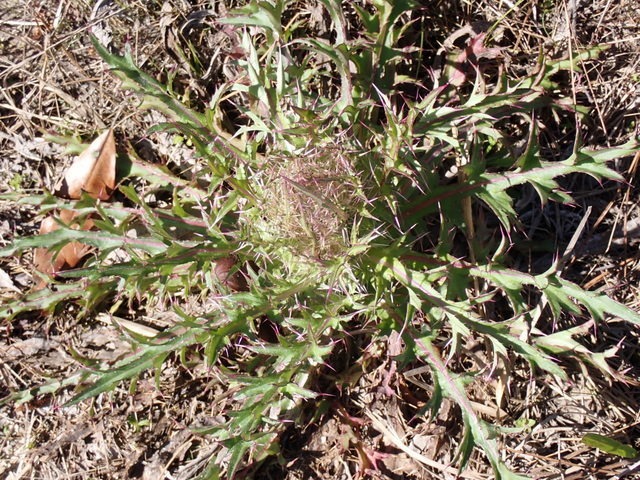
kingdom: Plantae
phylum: Tracheophyta
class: Magnoliopsida
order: Asterales
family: Asteraceae
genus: Cirsium
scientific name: Cirsium horridulum
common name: Bristly thistle
